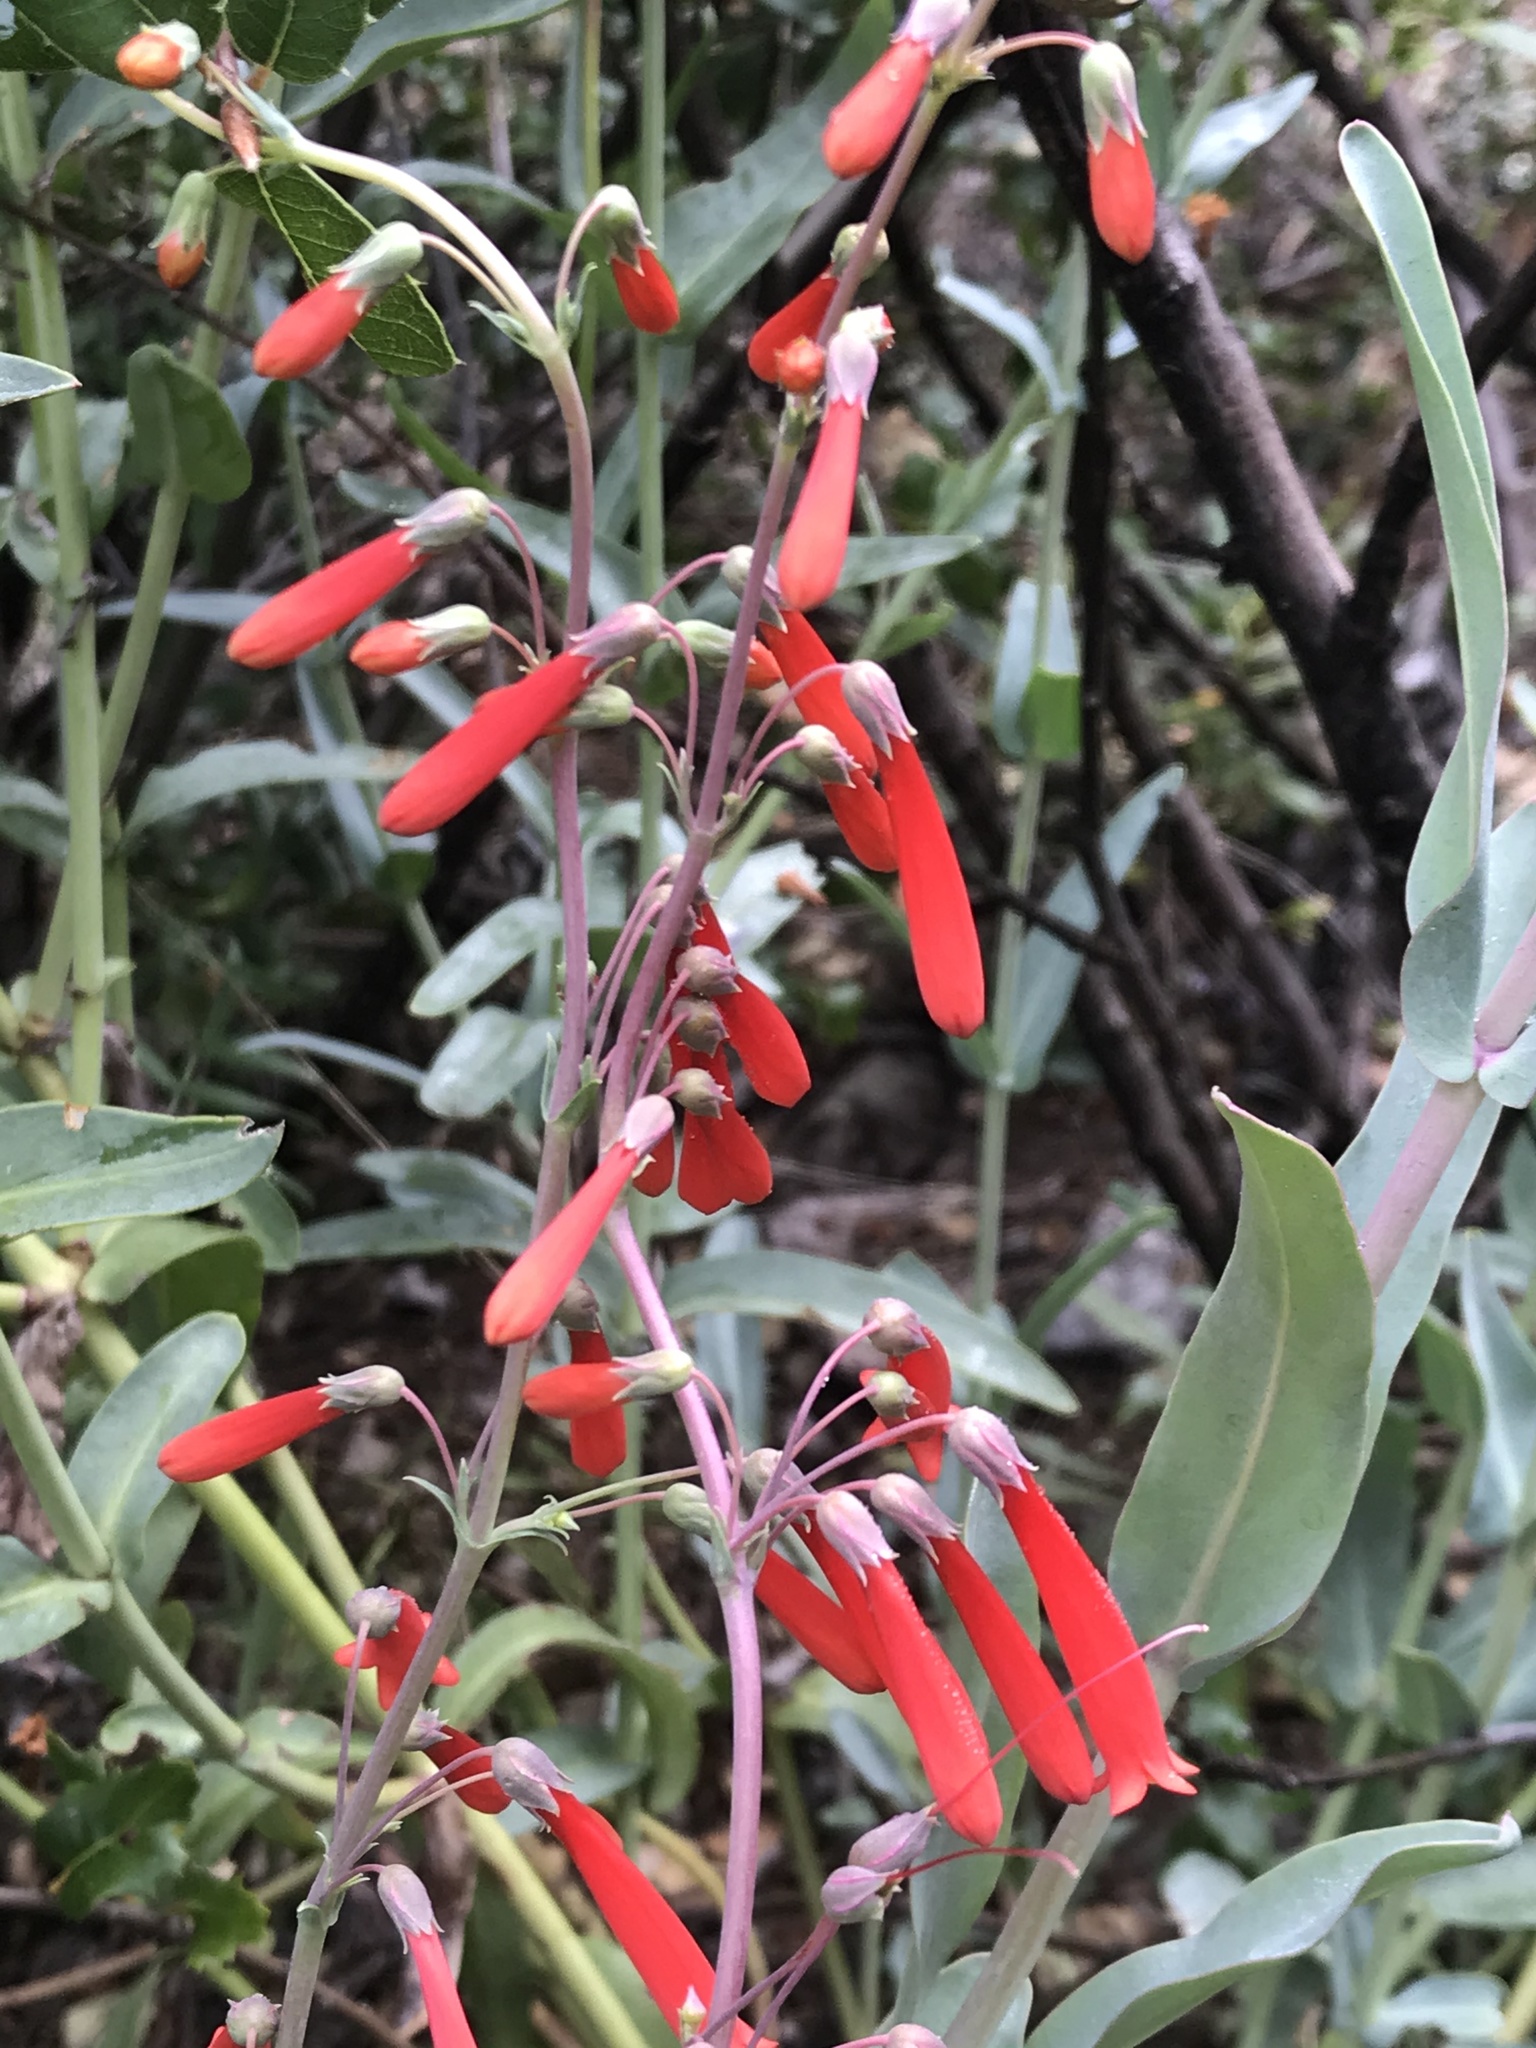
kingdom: Plantae
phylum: Tracheophyta
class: Magnoliopsida
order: Lamiales
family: Plantaginaceae
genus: Penstemon
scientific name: Penstemon centranthifolius
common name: Scarlet bugler
